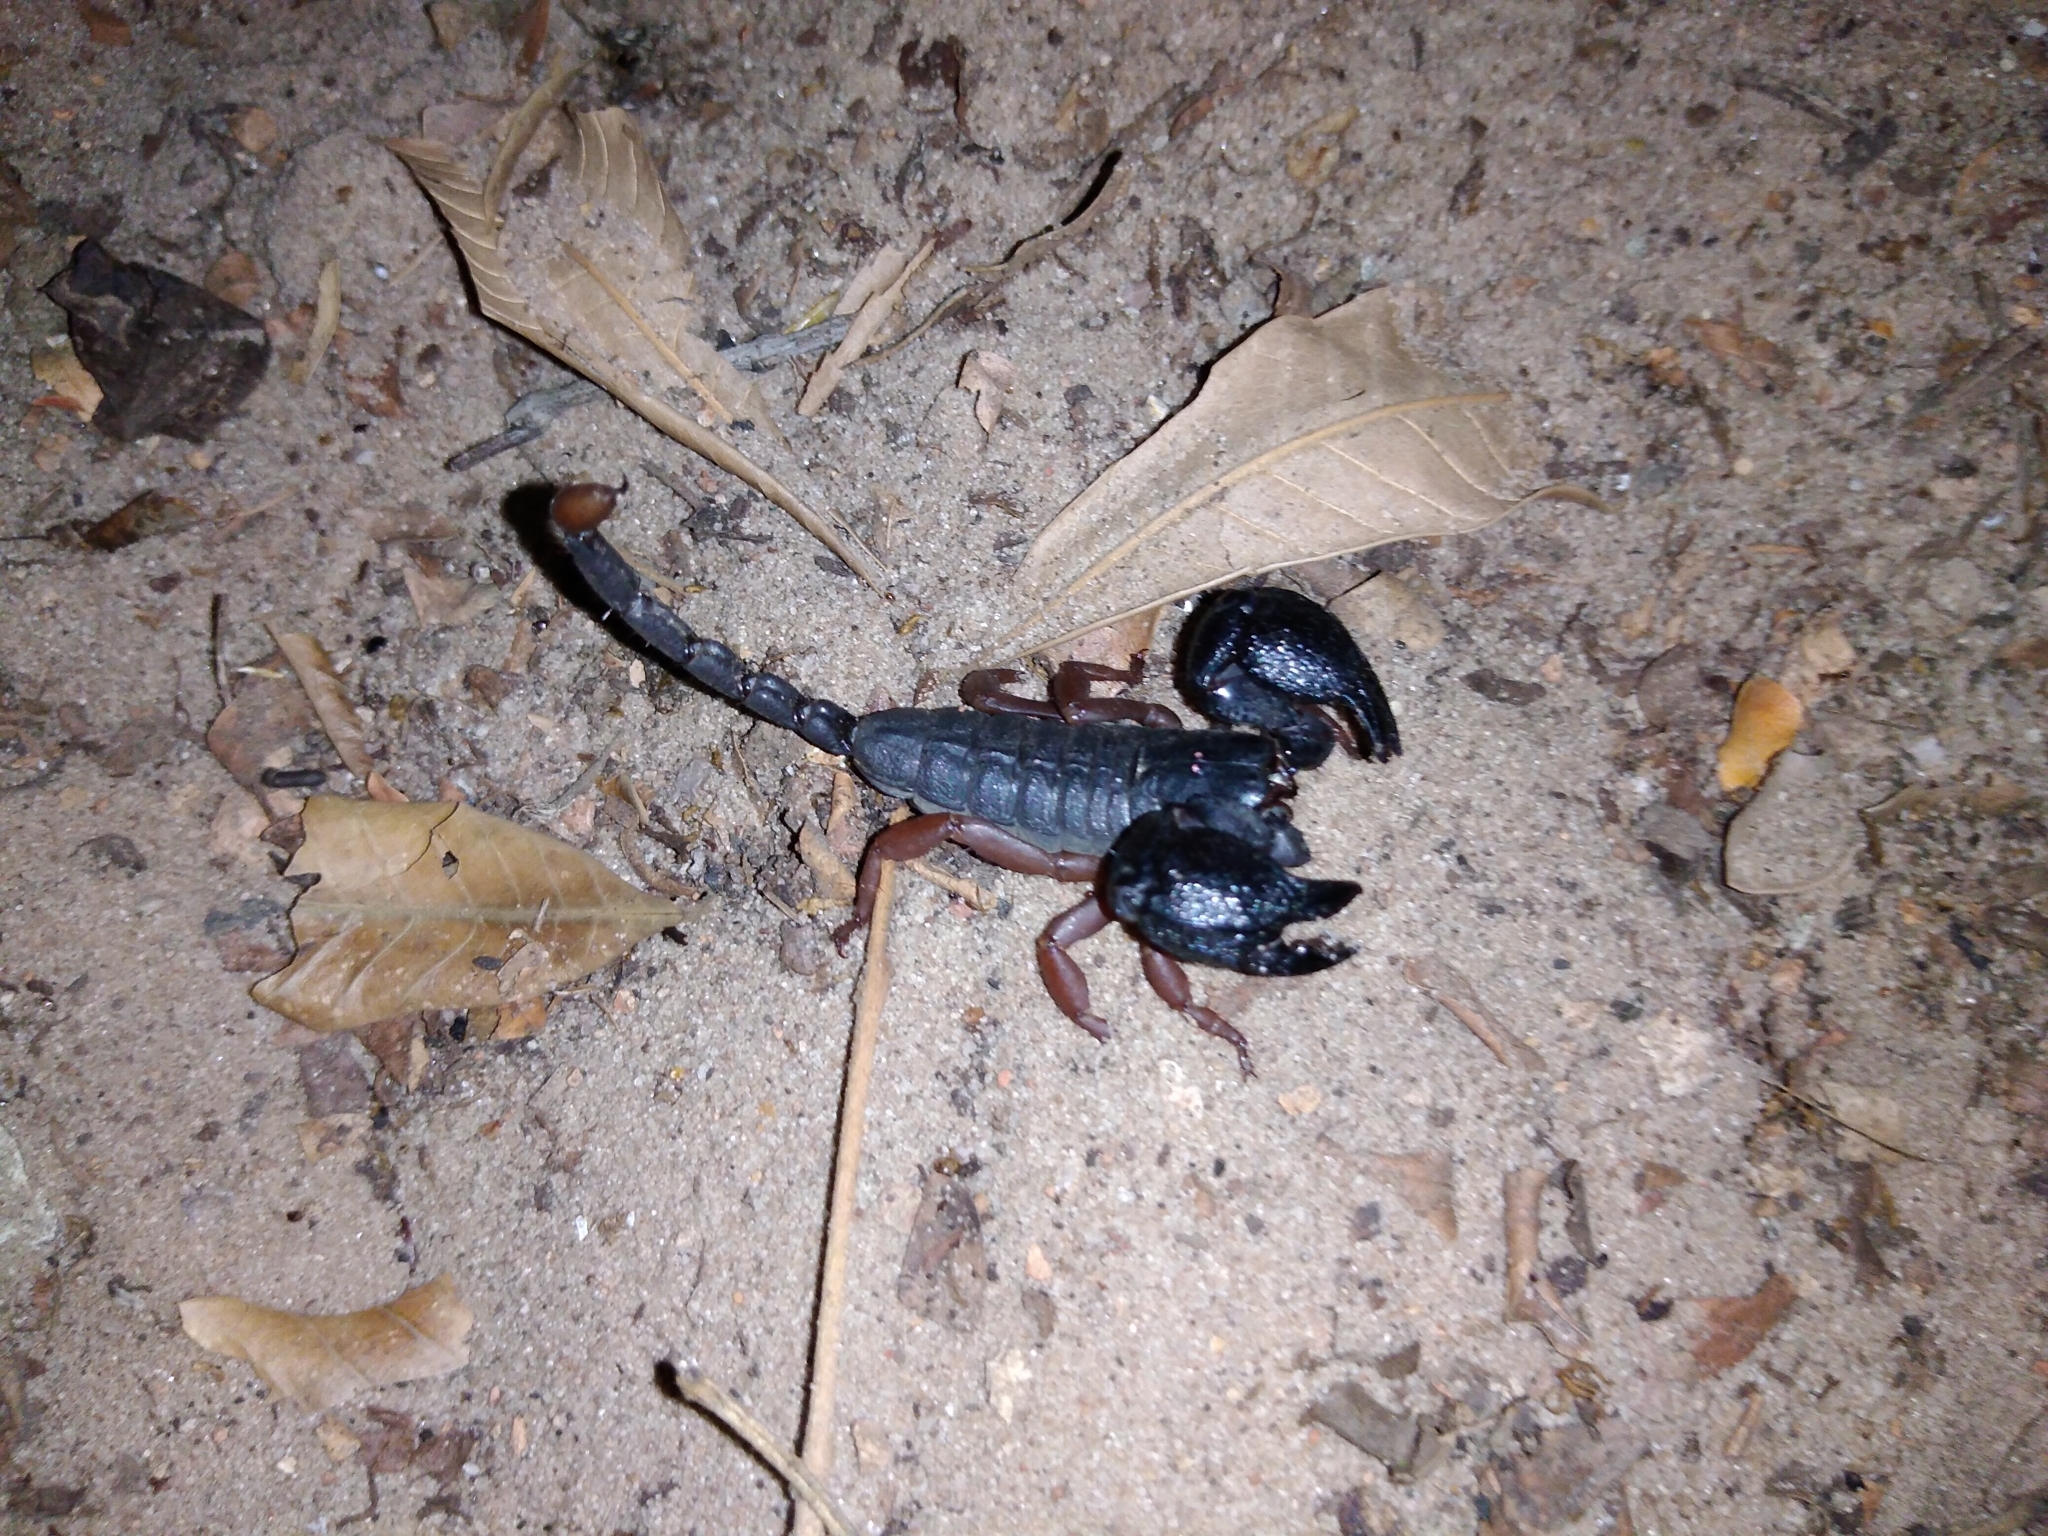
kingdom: Animalia
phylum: Arthropoda
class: Arachnida
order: Scorpiones
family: Hormuridae
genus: Cheloctonus
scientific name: Cheloctonus jonesii
